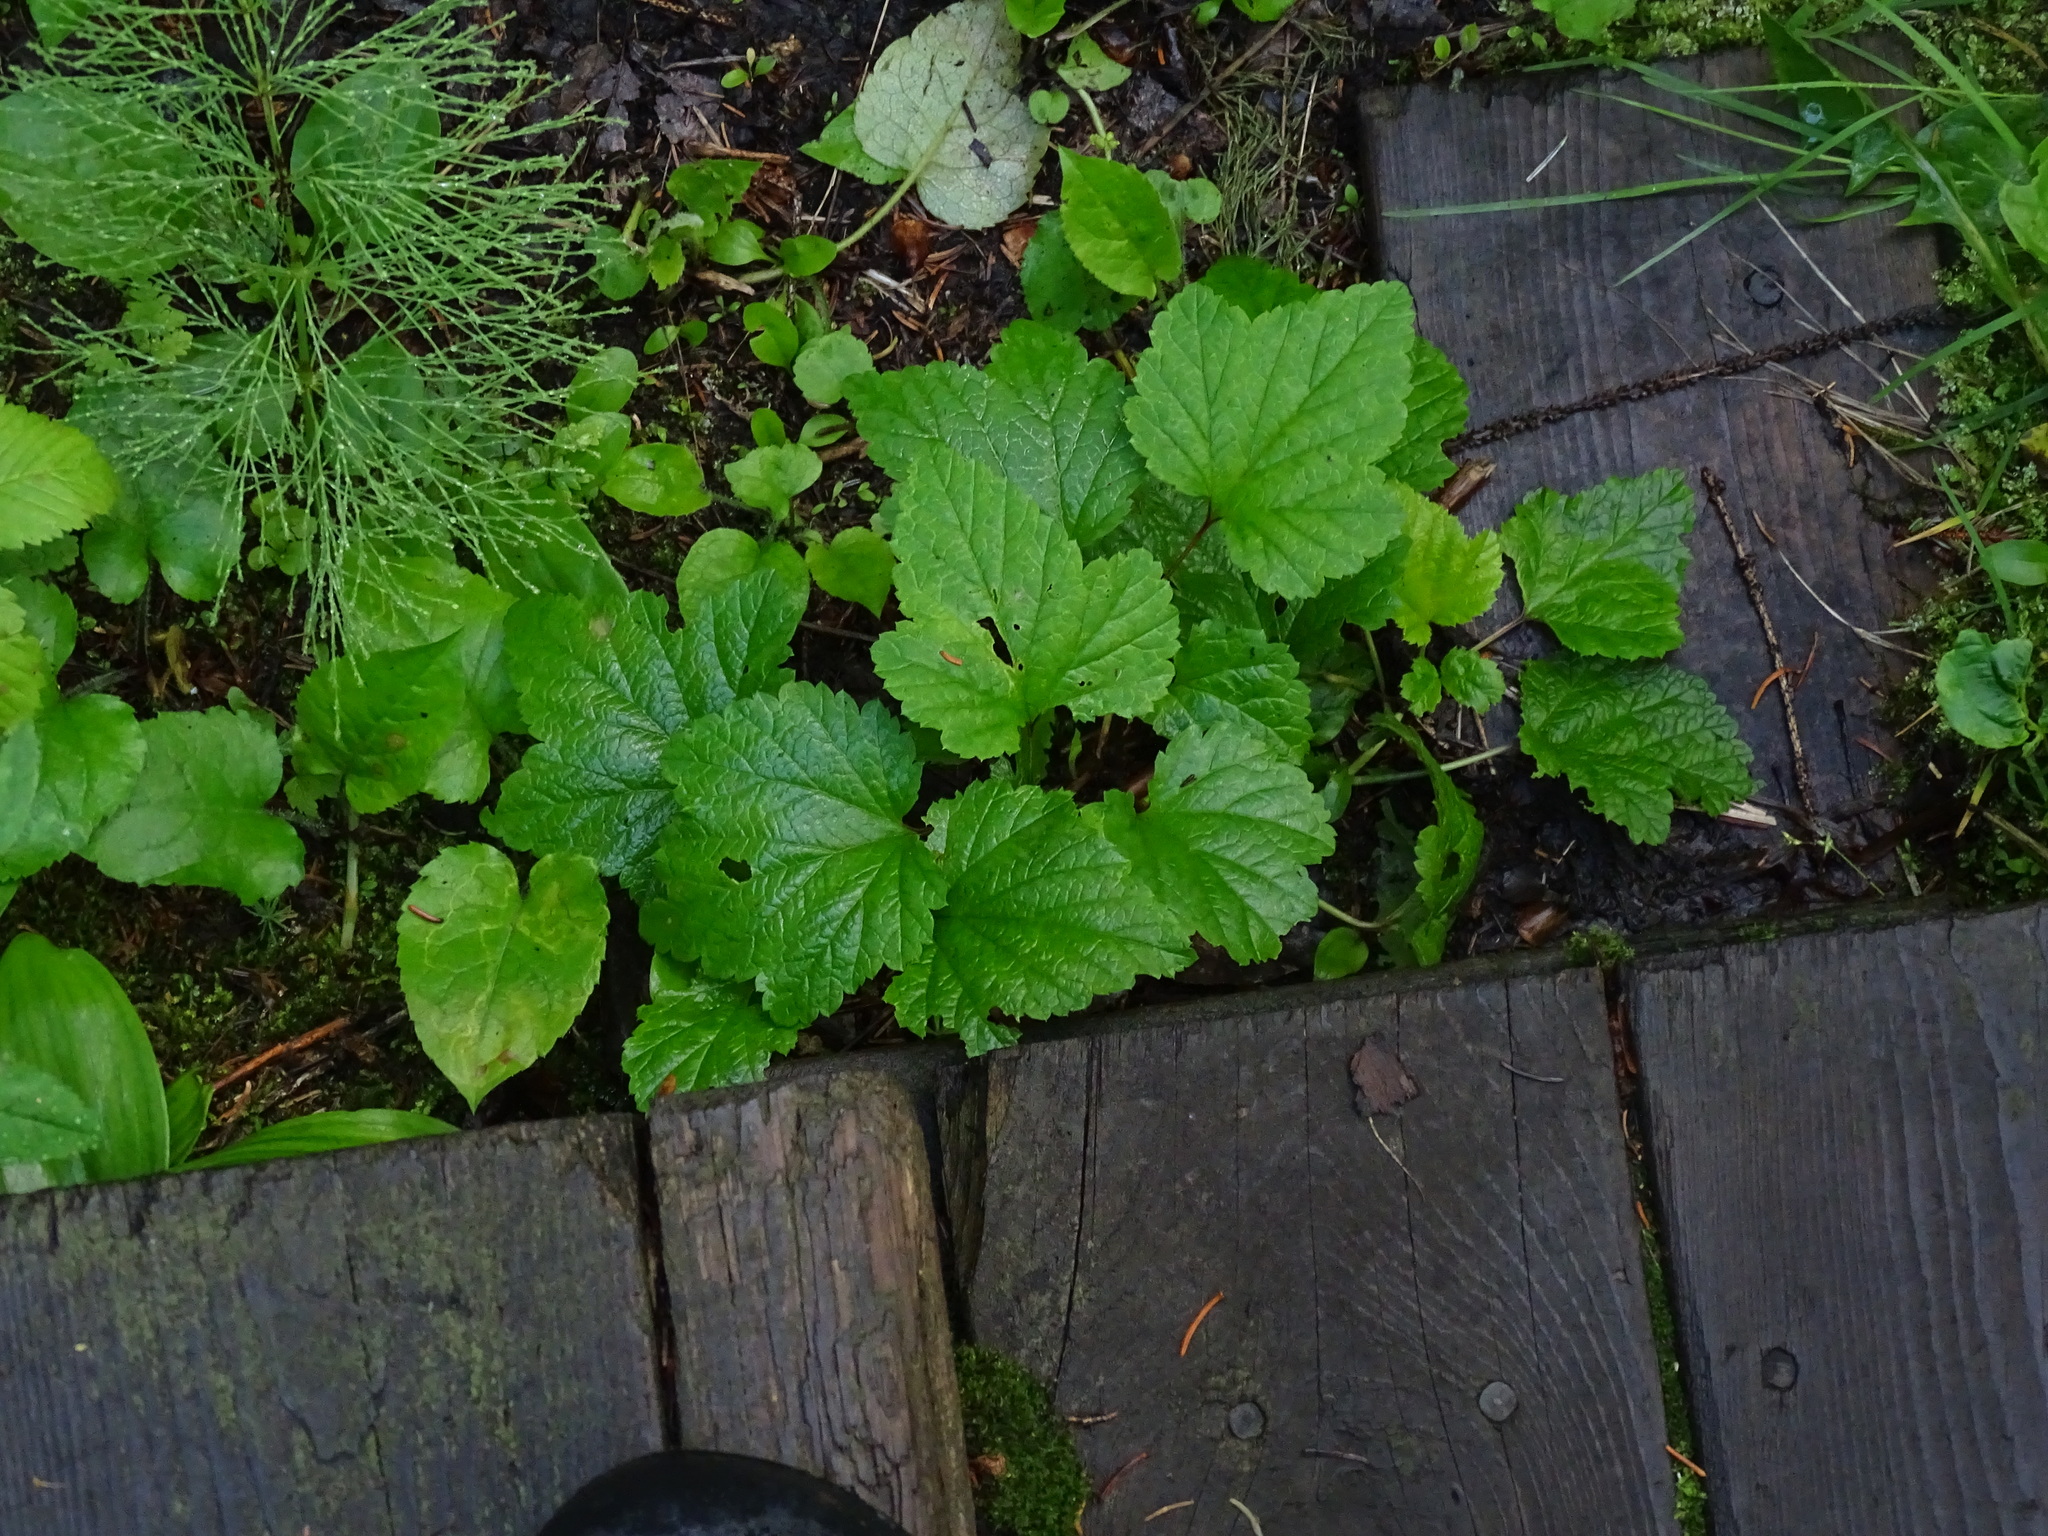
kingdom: Plantae
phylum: Tracheophyta
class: Magnoliopsida
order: Saxifragales
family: Grossulariaceae
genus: Ribes
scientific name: Ribes triste
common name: Swamp red currant
